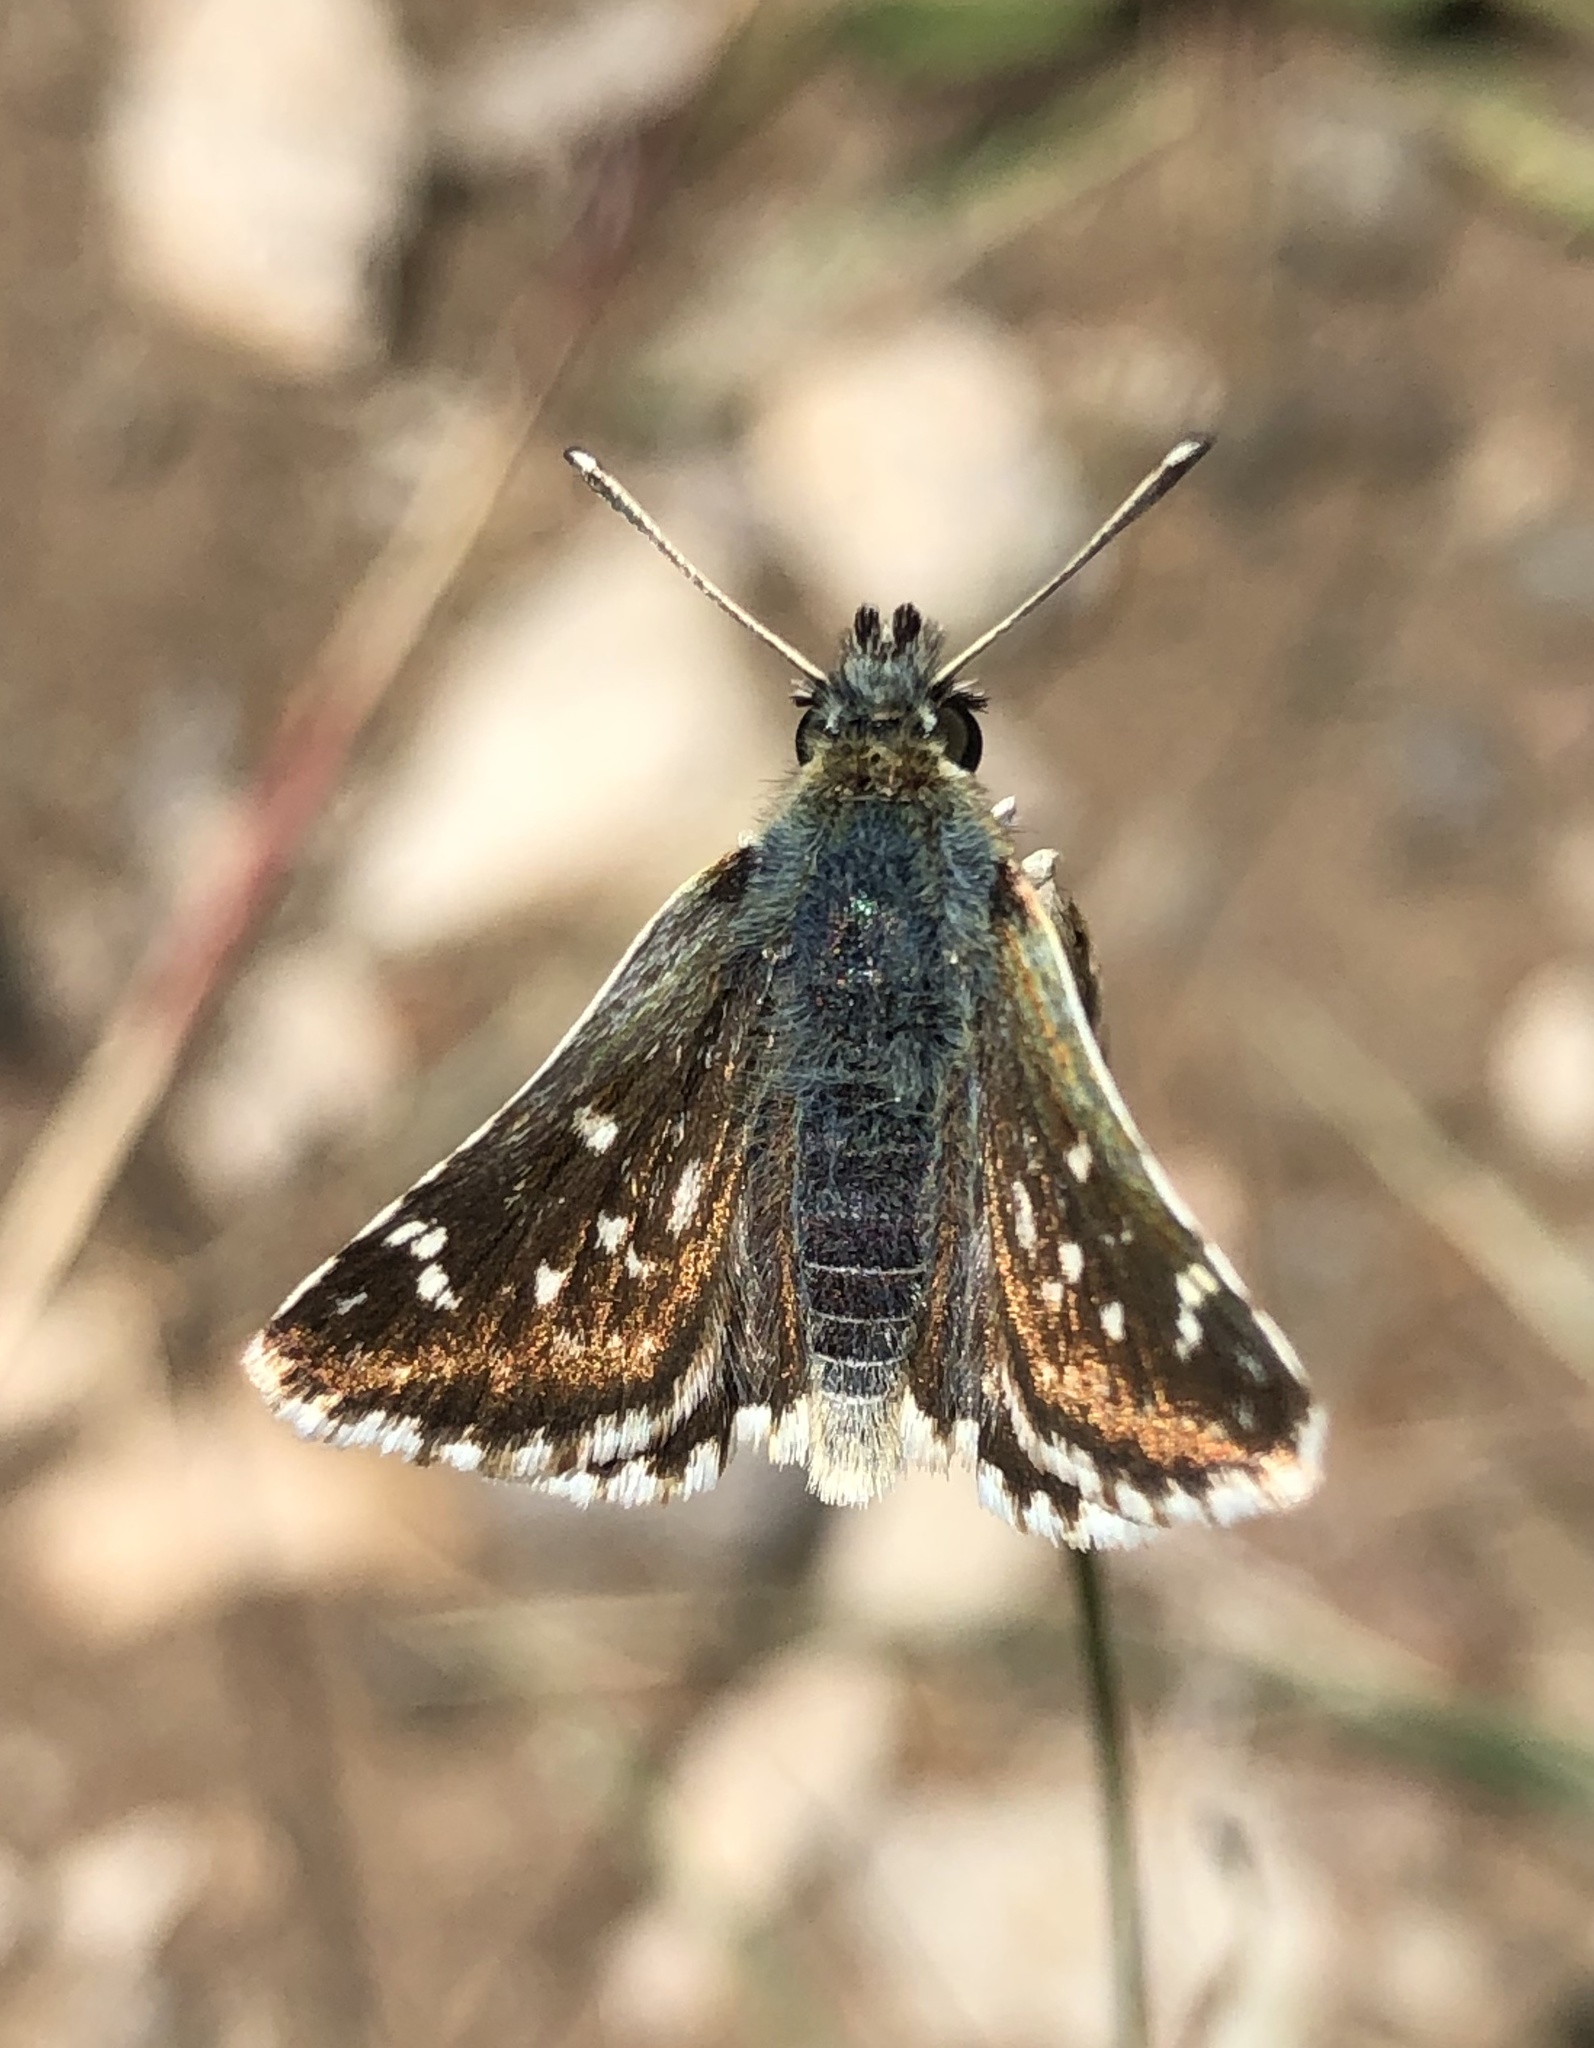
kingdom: Animalia
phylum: Arthropoda
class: Insecta
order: Lepidoptera
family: Hesperiidae
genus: Spialia
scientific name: Spialia sertorius
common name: Red underwing skipper
